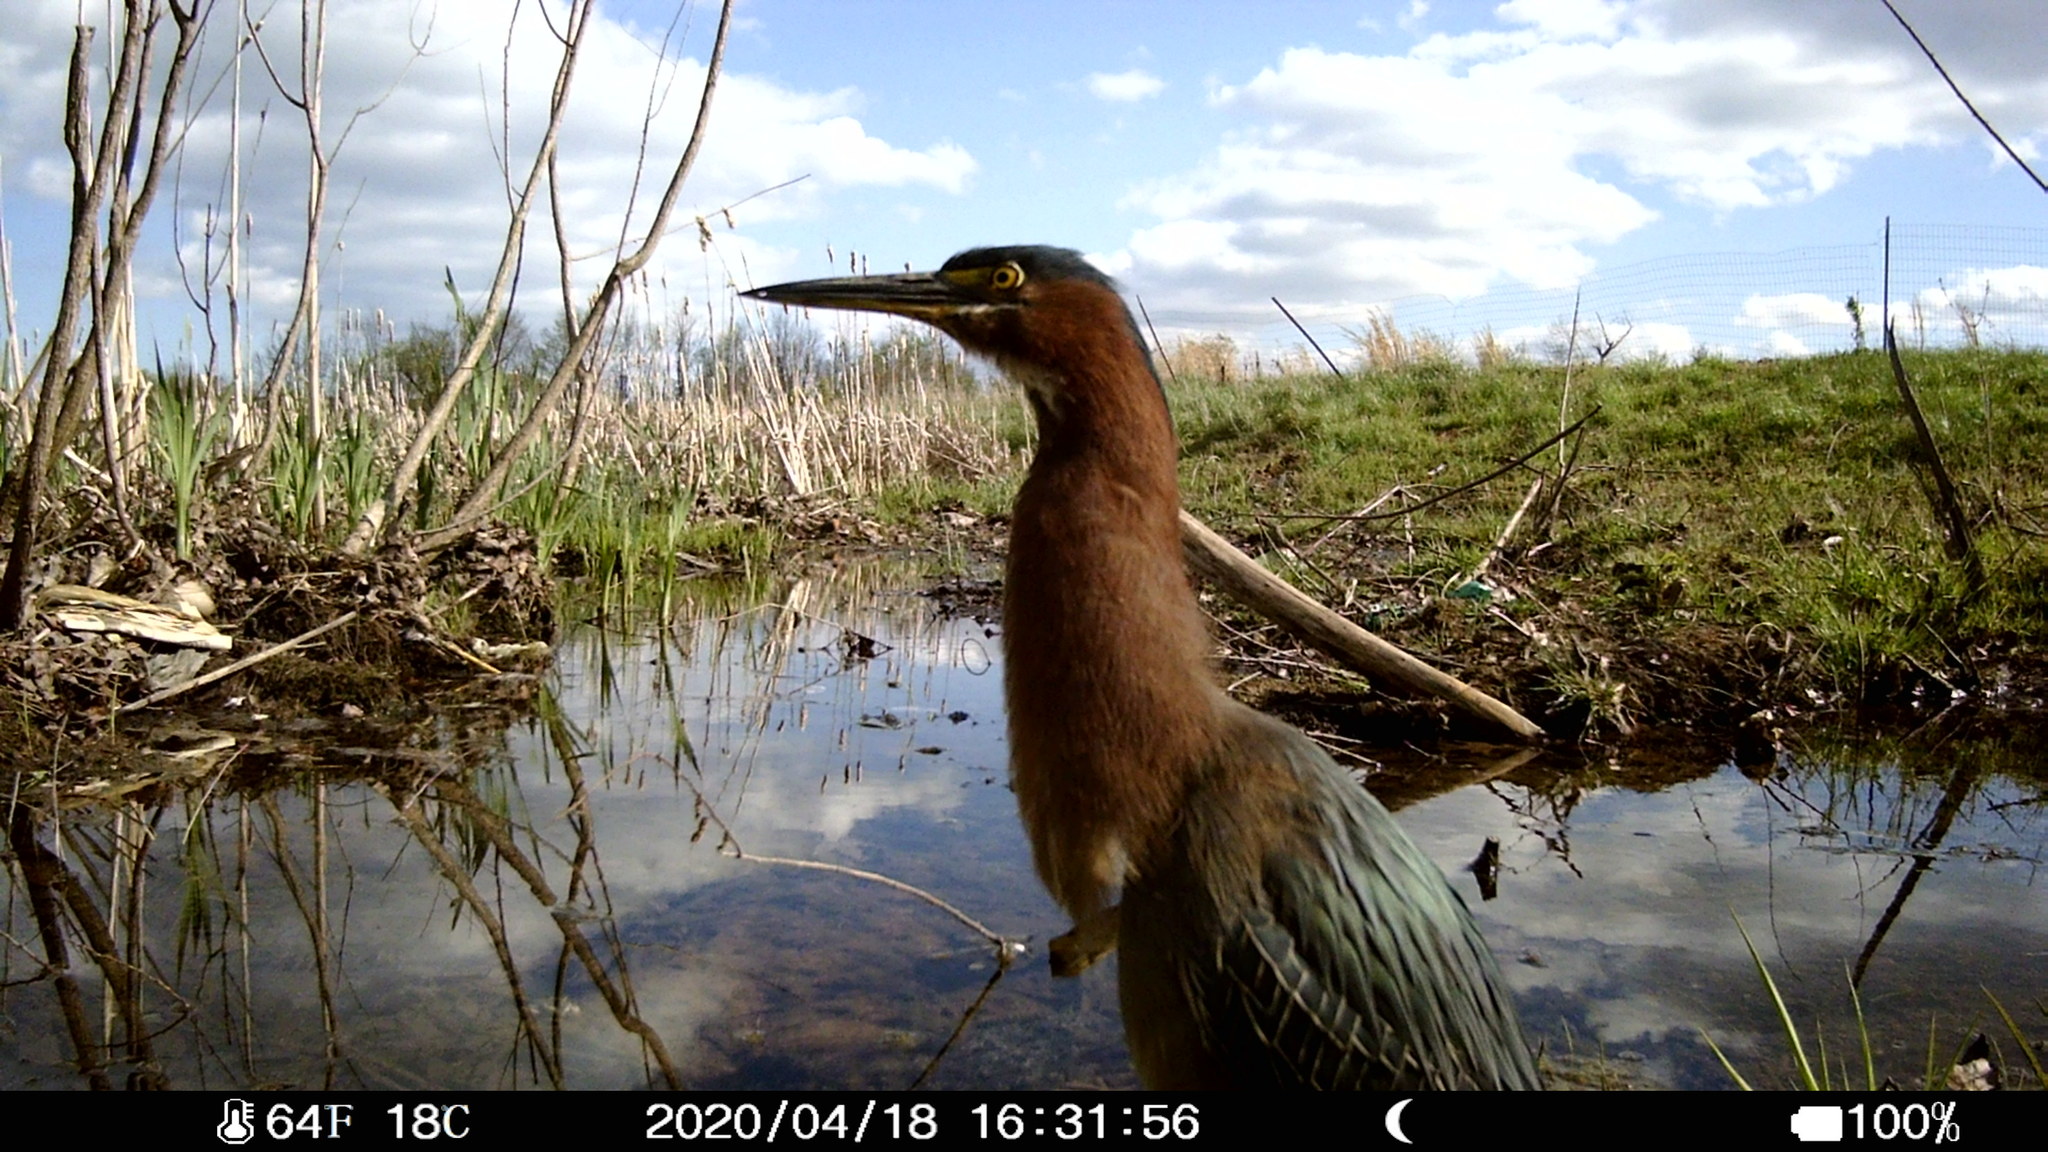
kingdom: Animalia
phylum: Chordata
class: Aves
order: Pelecaniformes
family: Ardeidae
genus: Butorides
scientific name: Butorides virescens
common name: Green heron
